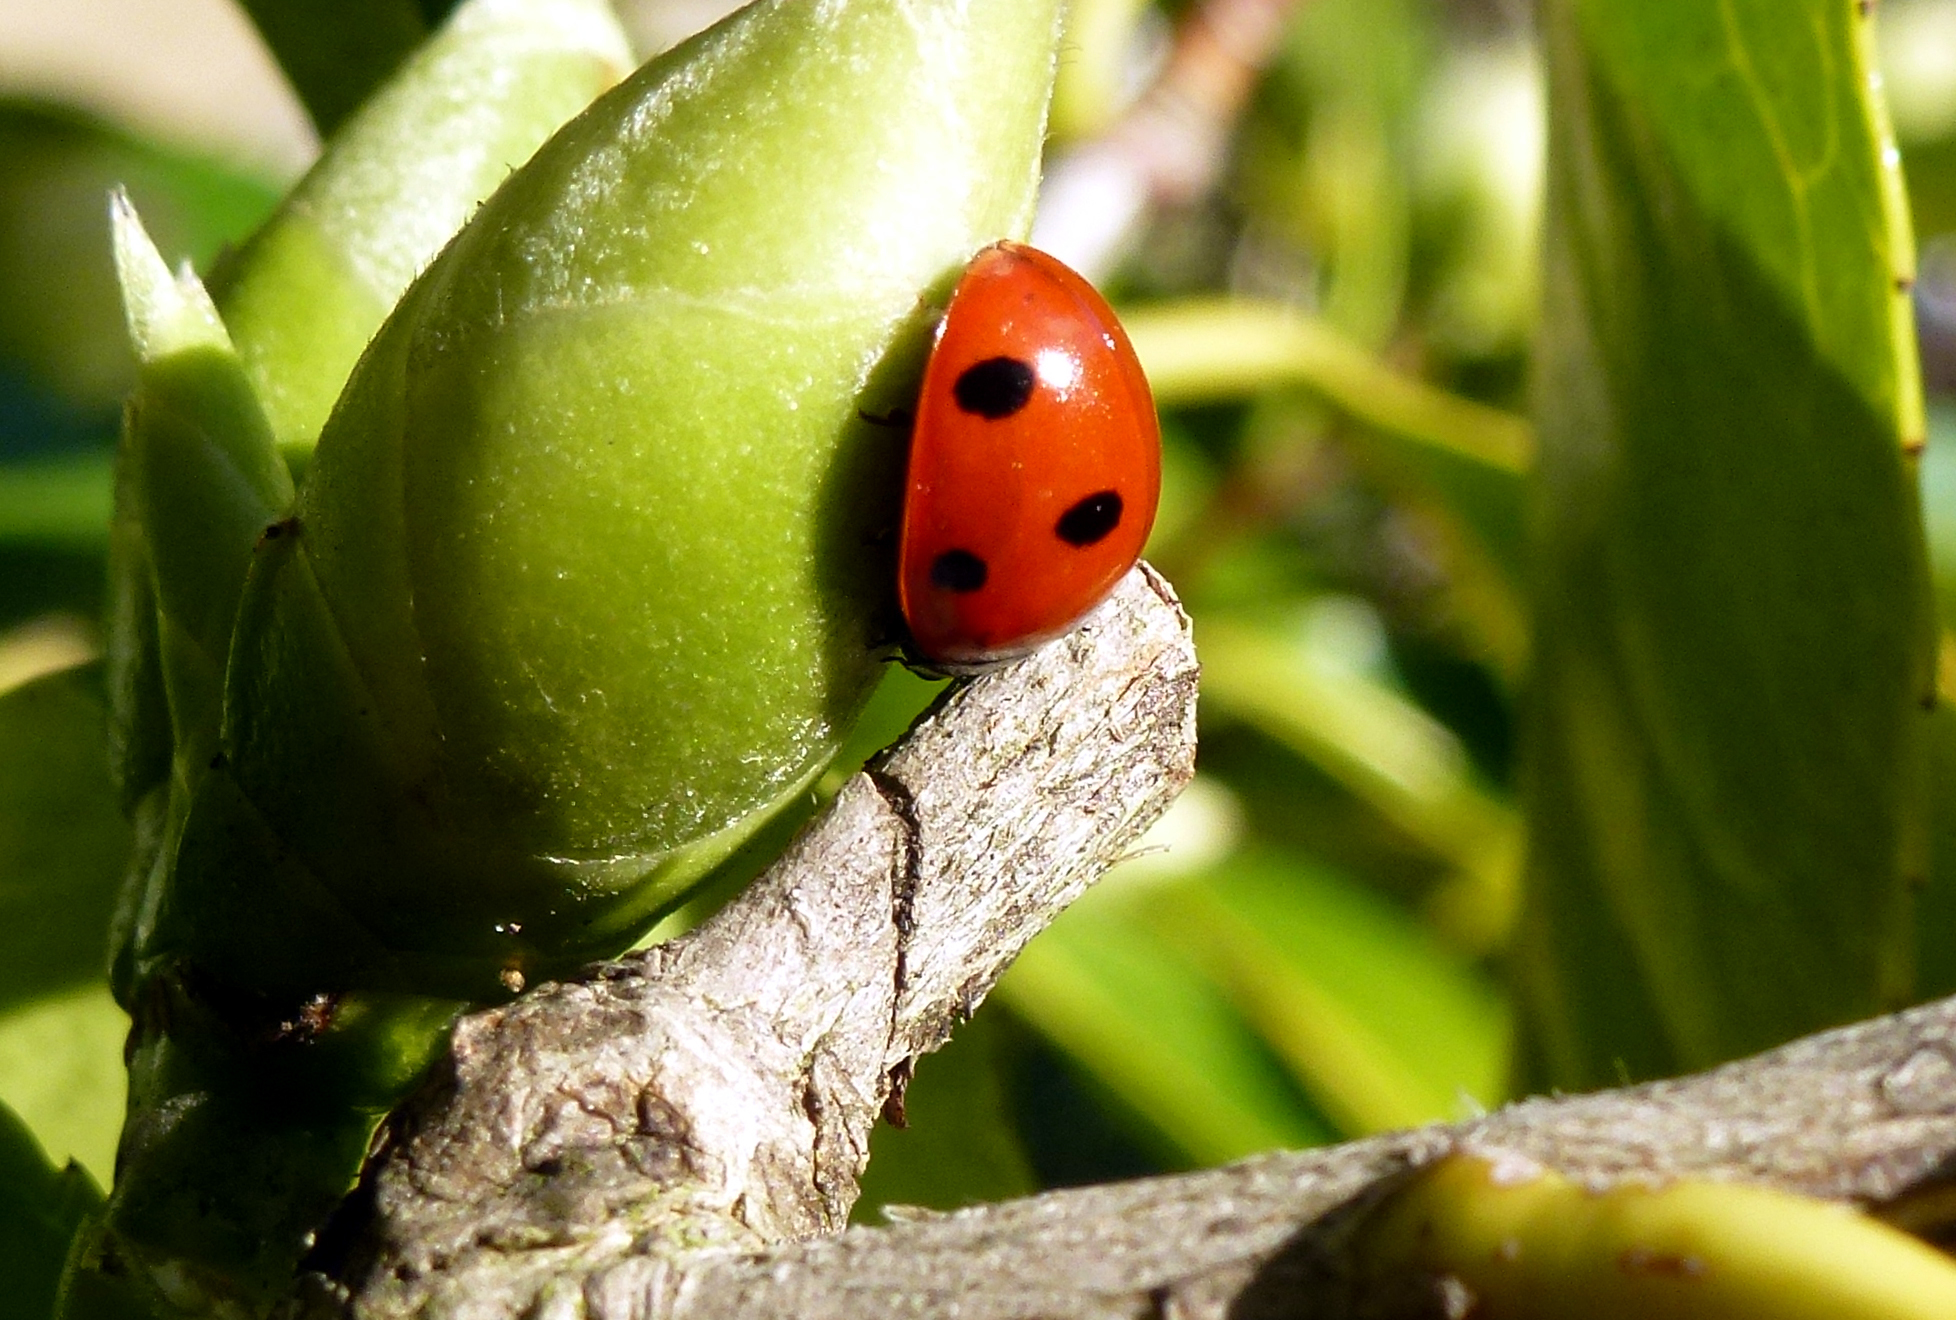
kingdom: Animalia
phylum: Arthropoda
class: Insecta
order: Coleoptera
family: Coccinellidae
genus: Coccinella
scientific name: Coccinella septempunctata
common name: Sevenspotted lady beetle
